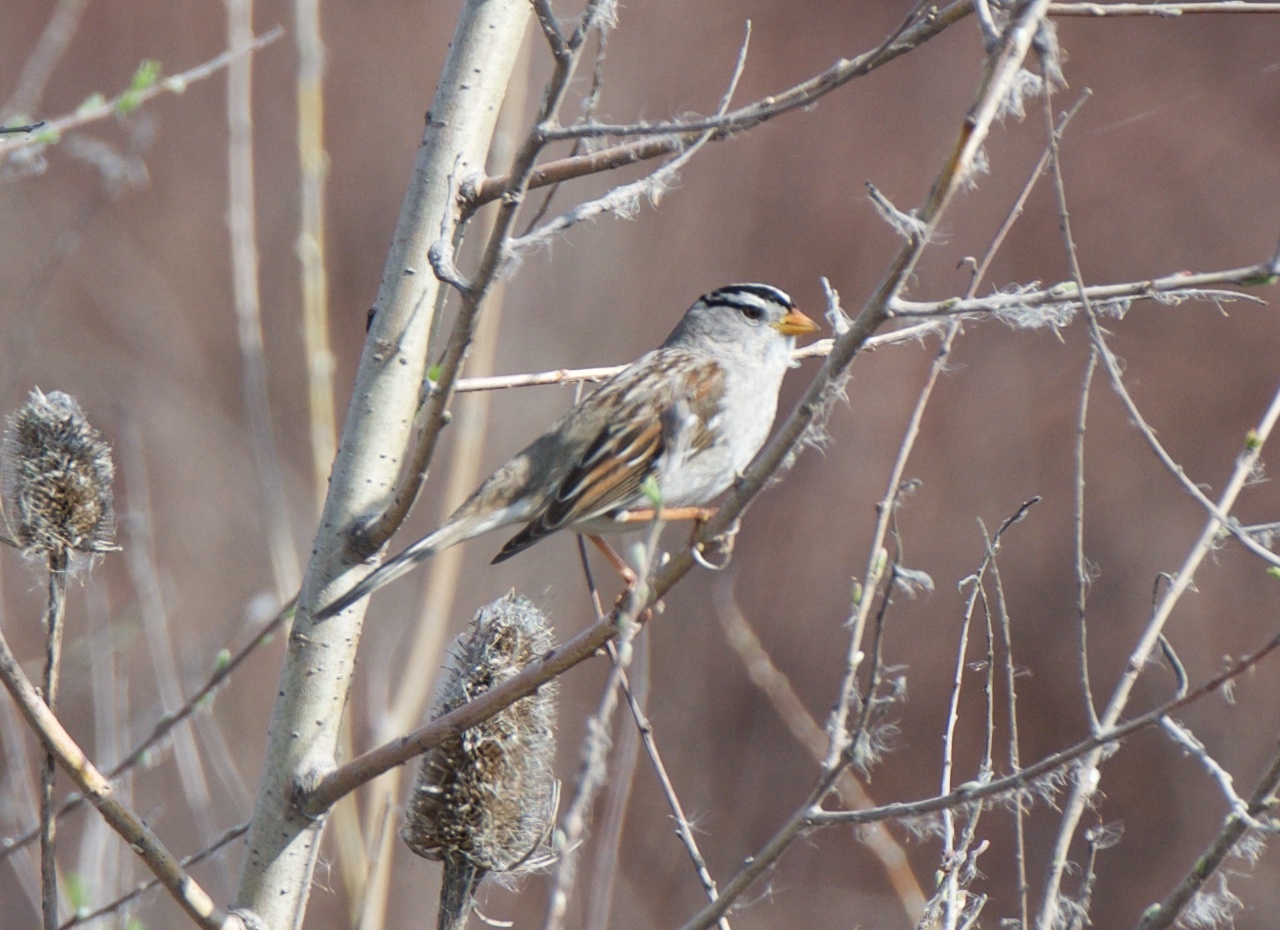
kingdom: Animalia
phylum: Chordata
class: Aves
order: Passeriformes
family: Passerellidae
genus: Zonotrichia
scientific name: Zonotrichia leucophrys
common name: White-crowned sparrow
